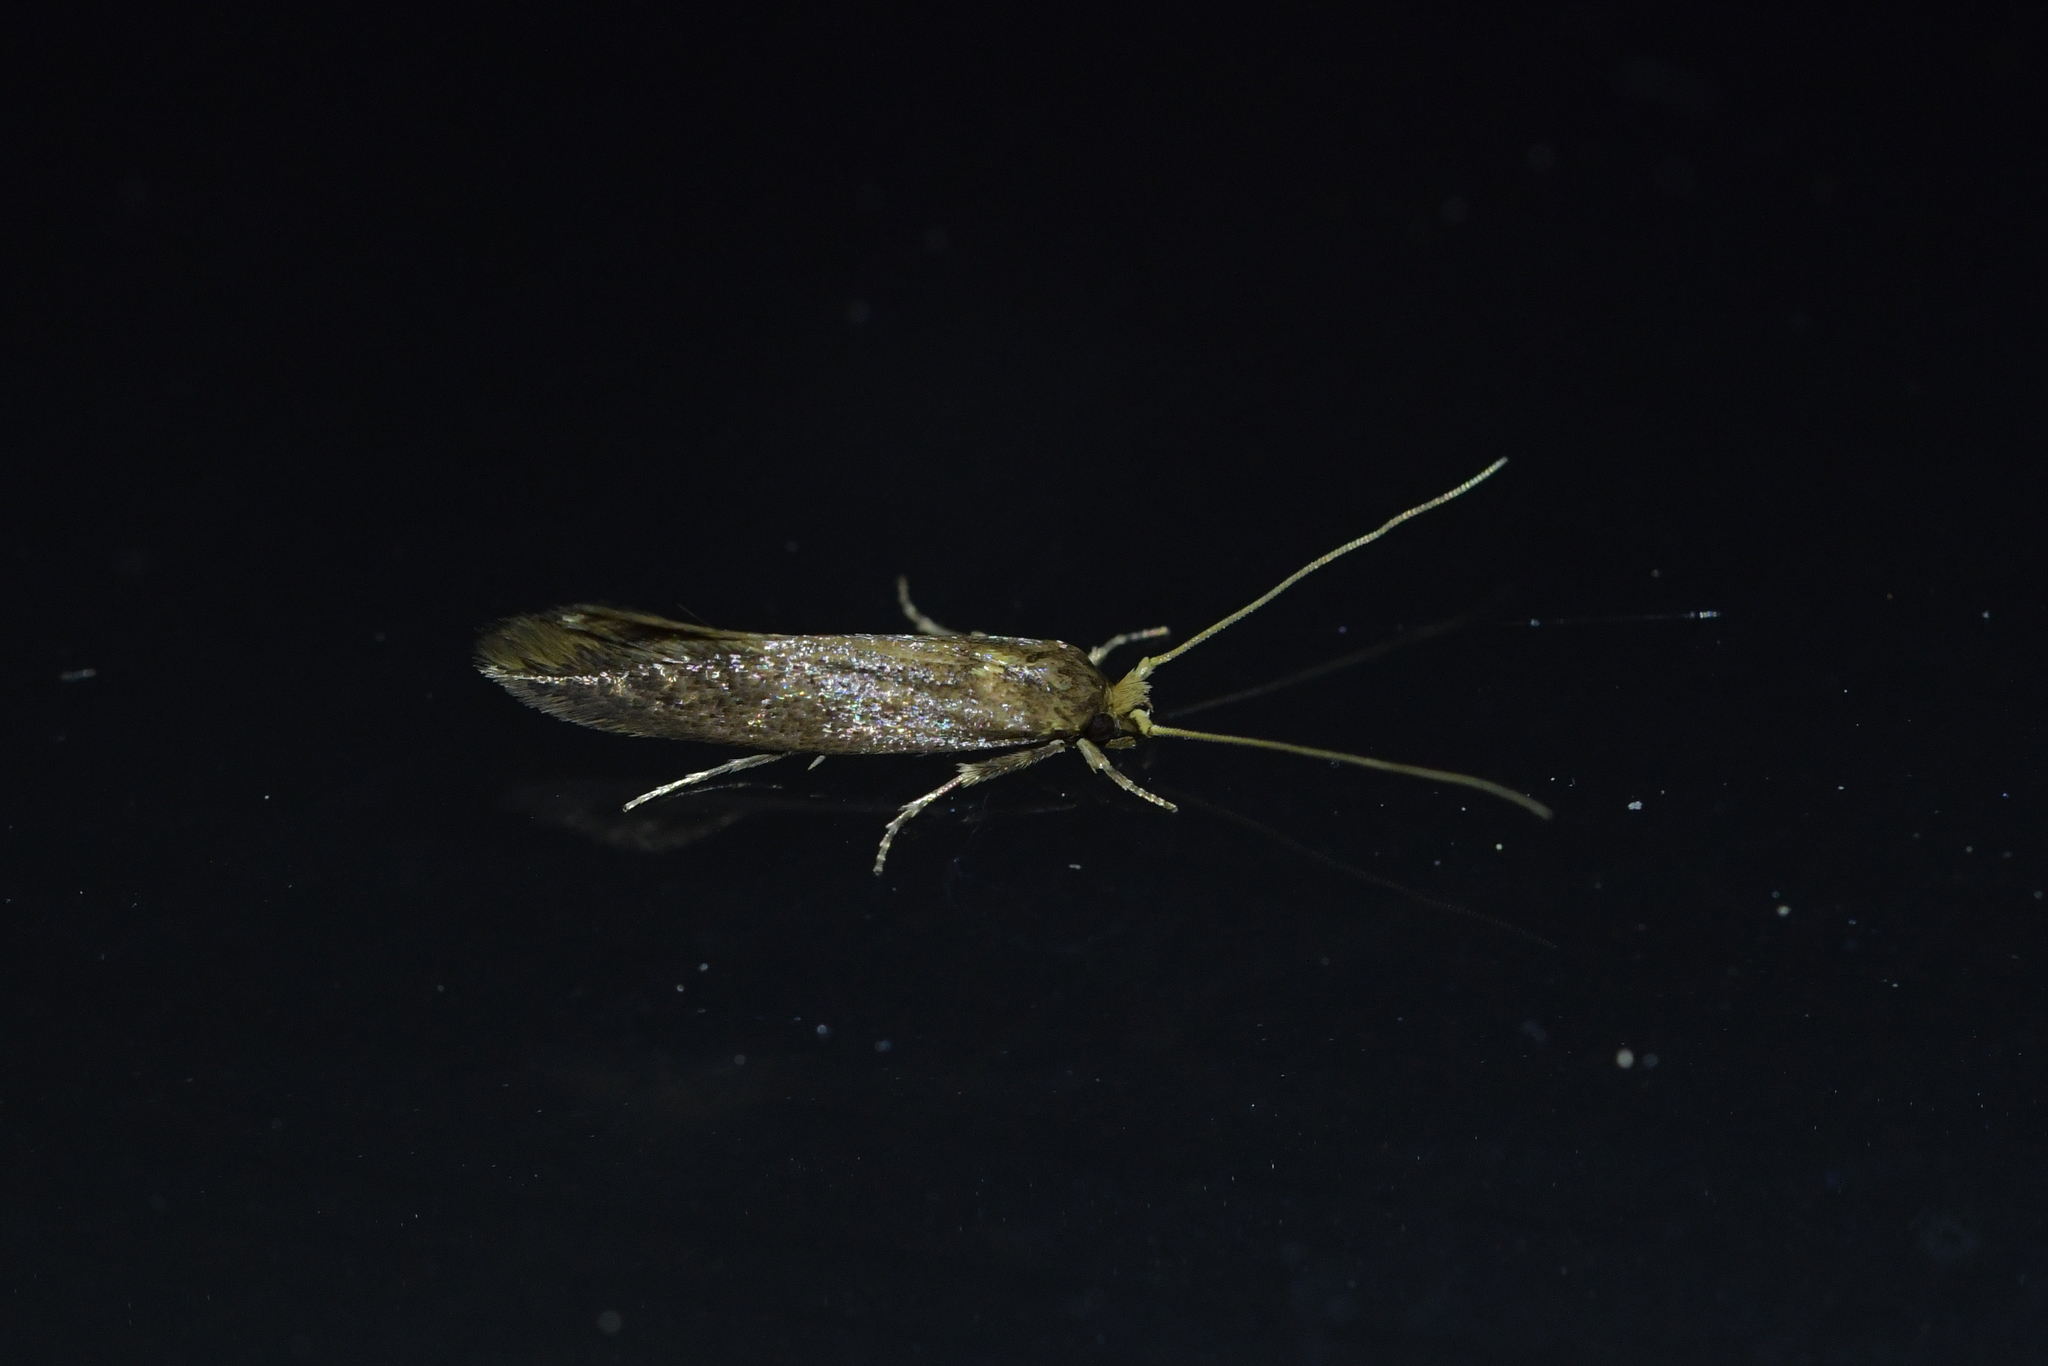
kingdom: Animalia
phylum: Arthropoda
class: Insecta
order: Lepidoptera
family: Tineidae
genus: Opogona
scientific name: Opogona omoscopa
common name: Moth
